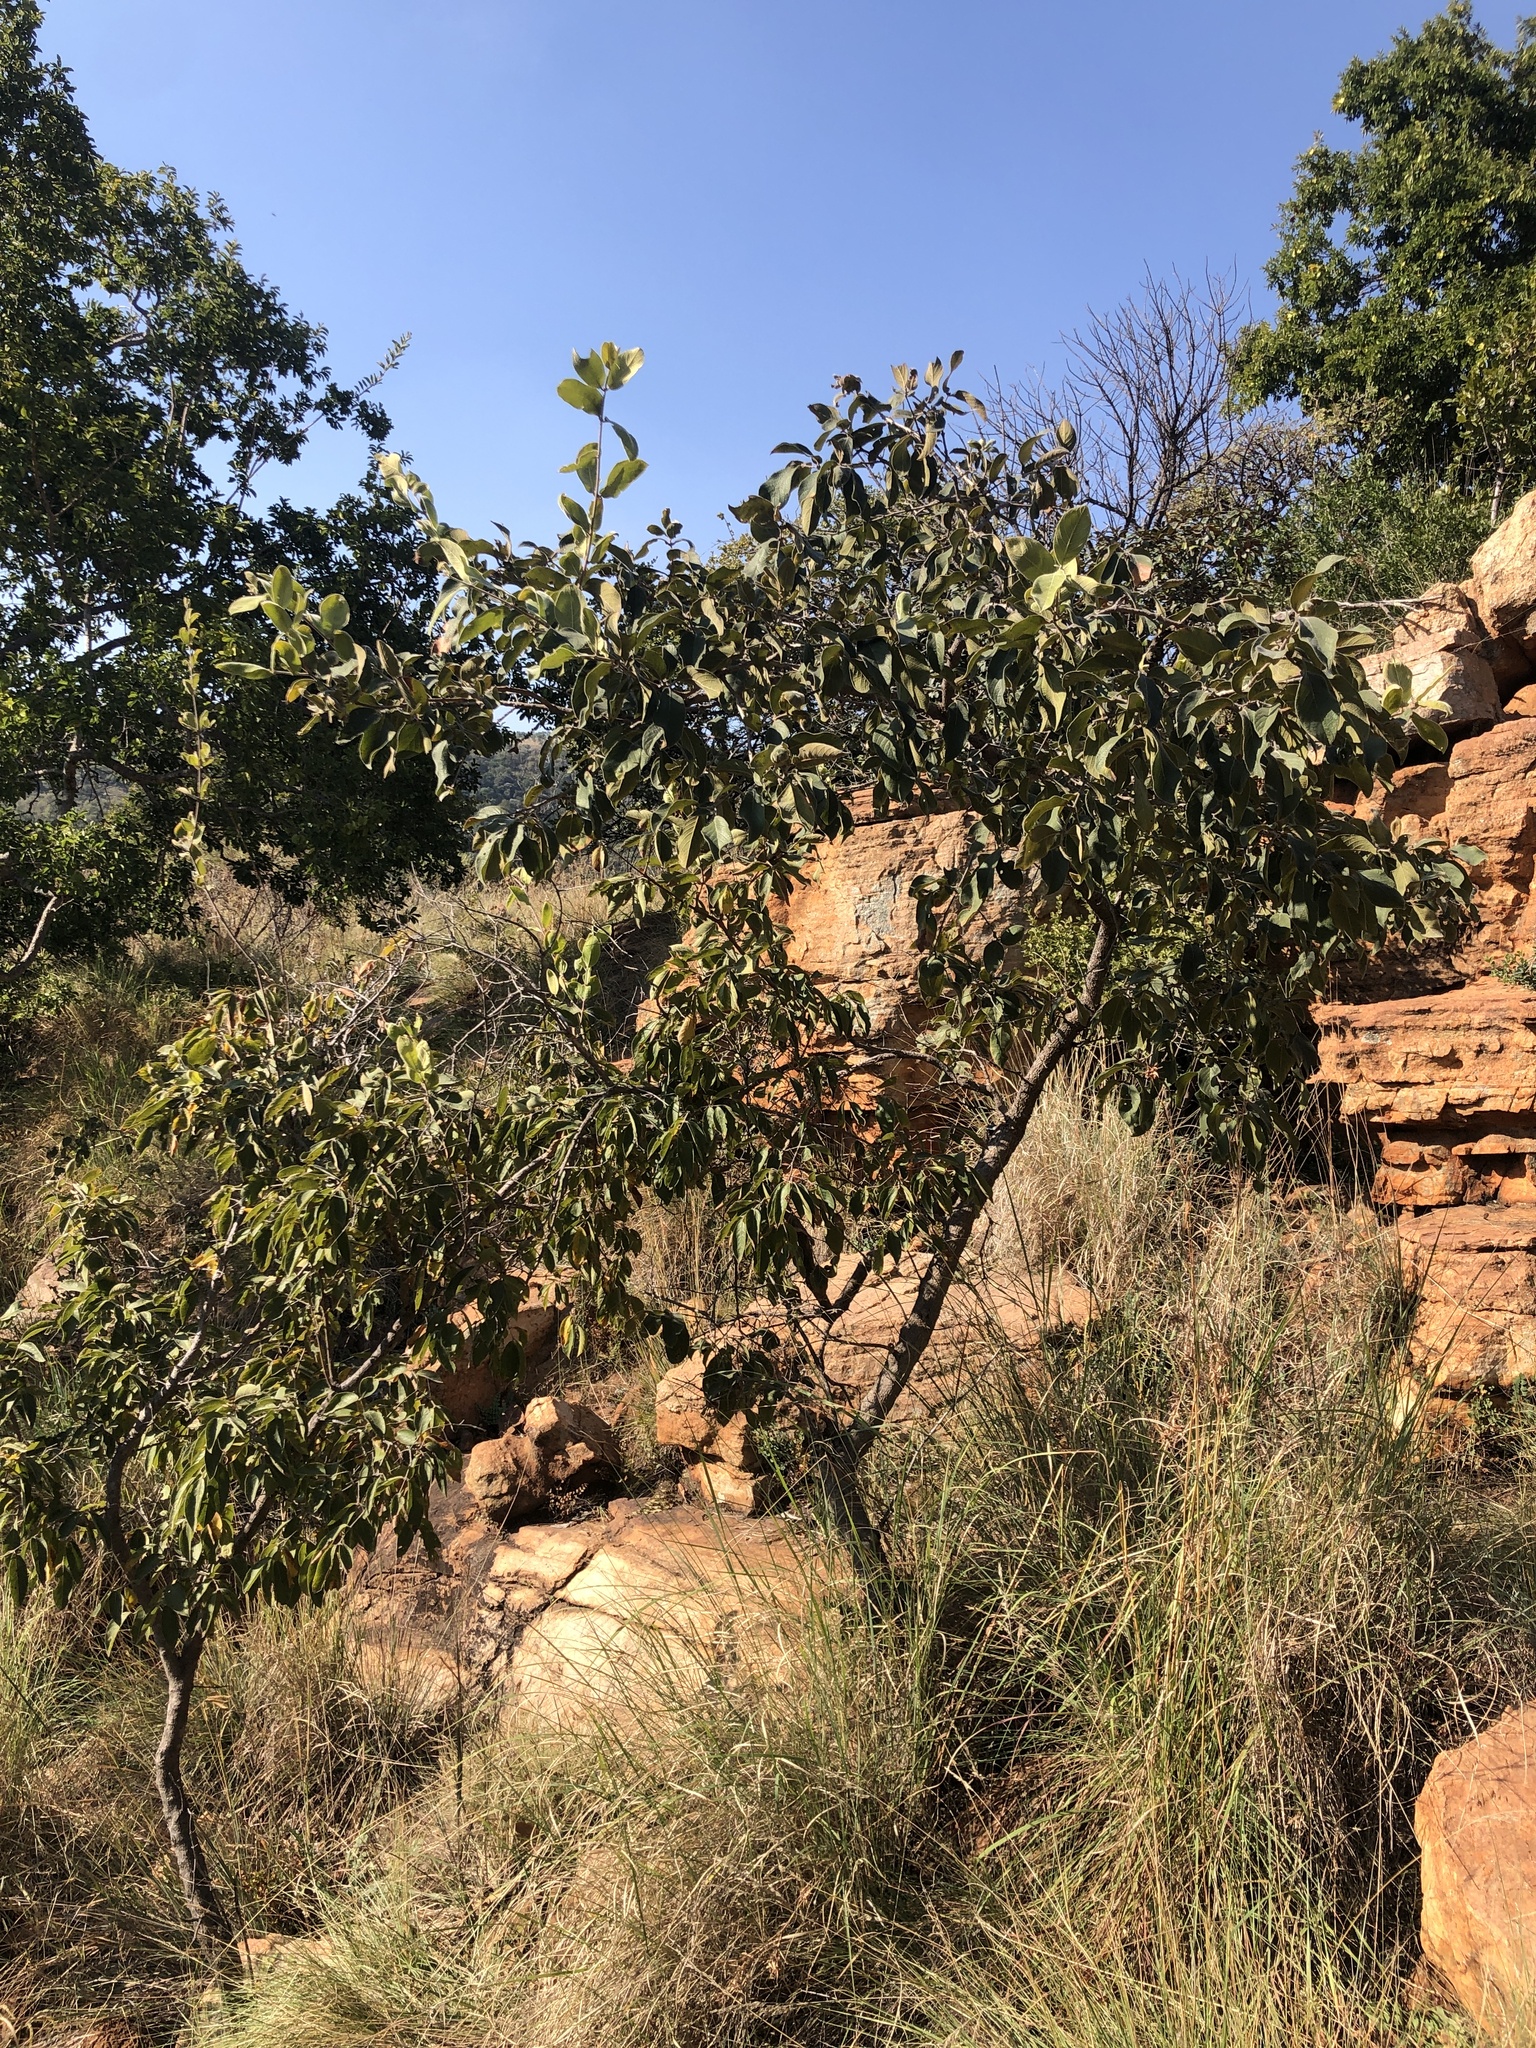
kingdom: Plantae
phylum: Tracheophyta
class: Magnoliopsida
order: Myrtales
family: Combretaceae
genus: Combretum
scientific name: Combretum molle
